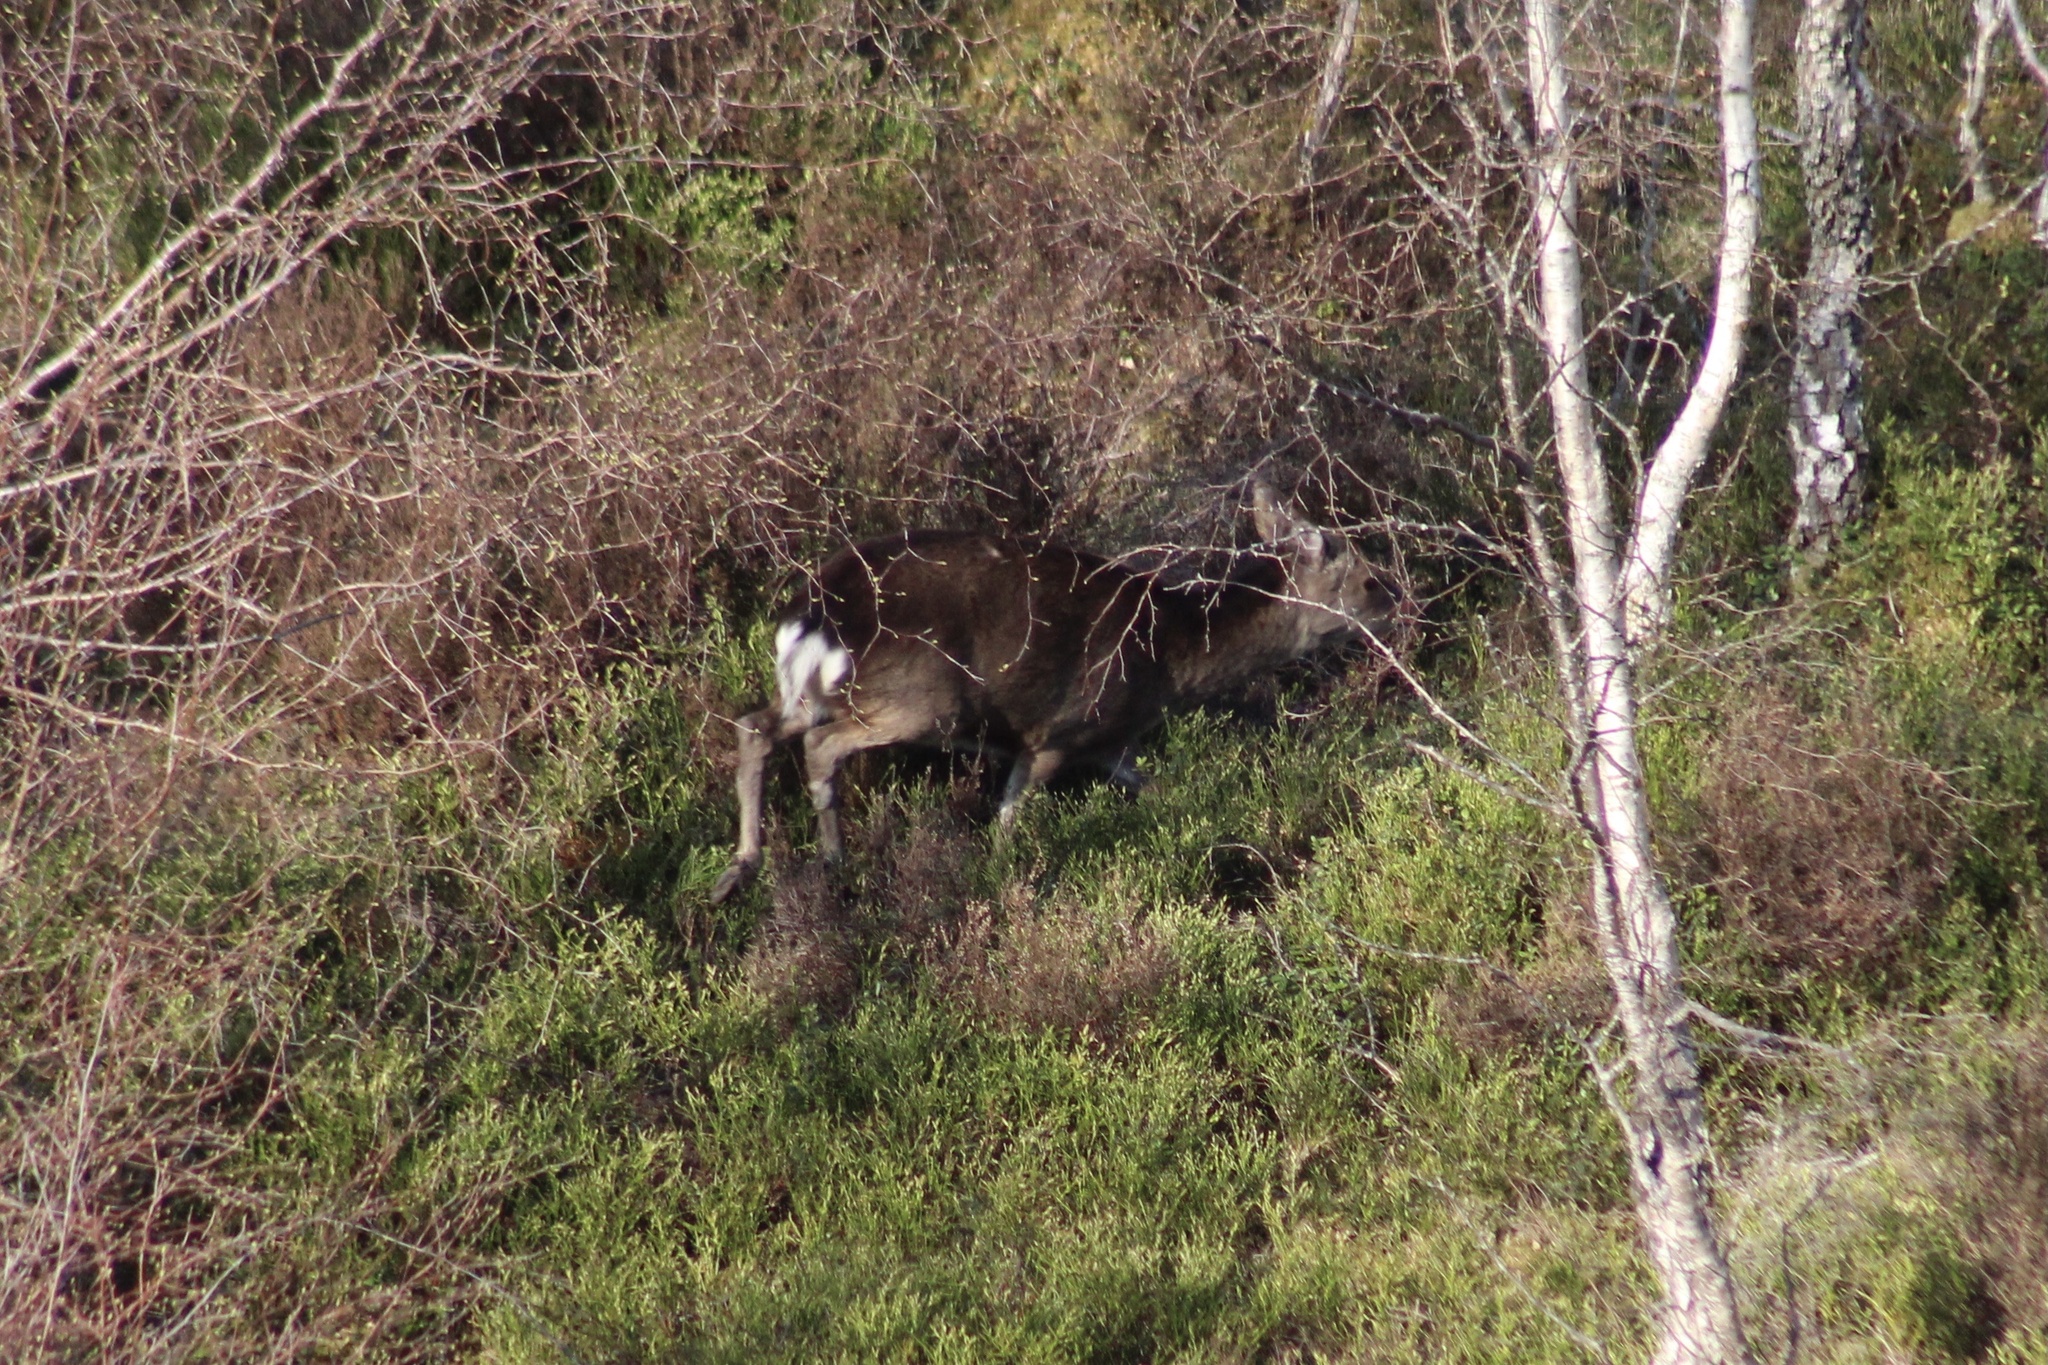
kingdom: Animalia
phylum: Chordata
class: Mammalia
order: Artiodactyla
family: Cervidae
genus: Cervus
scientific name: Cervus nippon
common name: Sika deer
